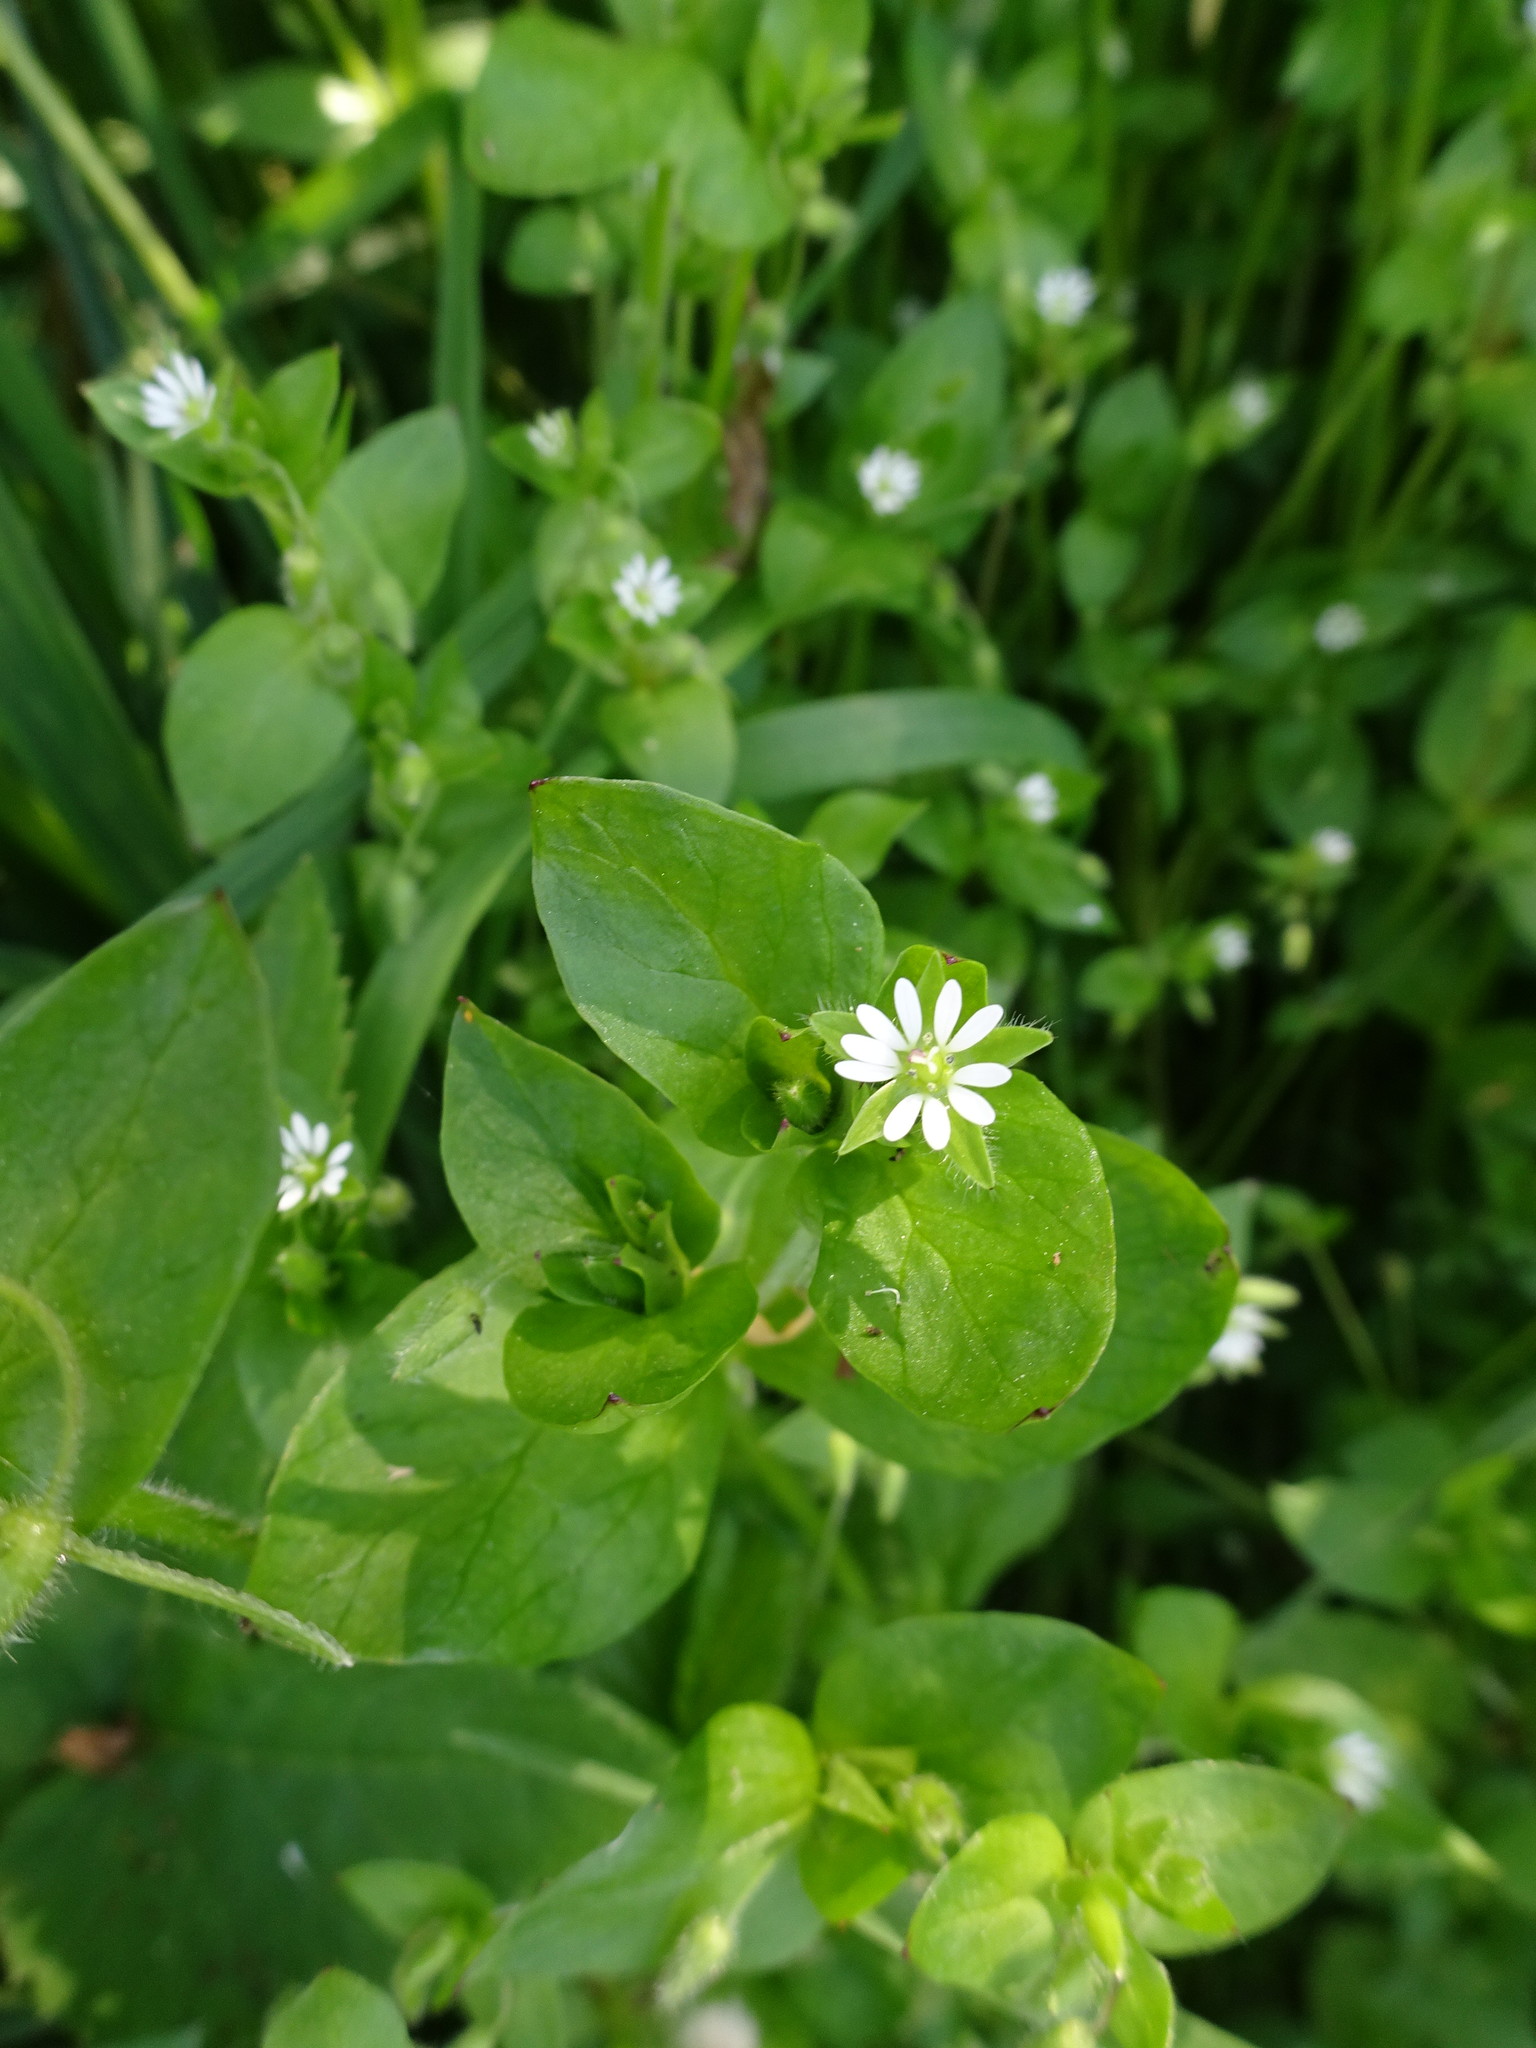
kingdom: Plantae
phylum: Tracheophyta
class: Magnoliopsida
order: Caryophyllales
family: Caryophyllaceae
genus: Stellaria
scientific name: Stellaria media
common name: Common chickweed
